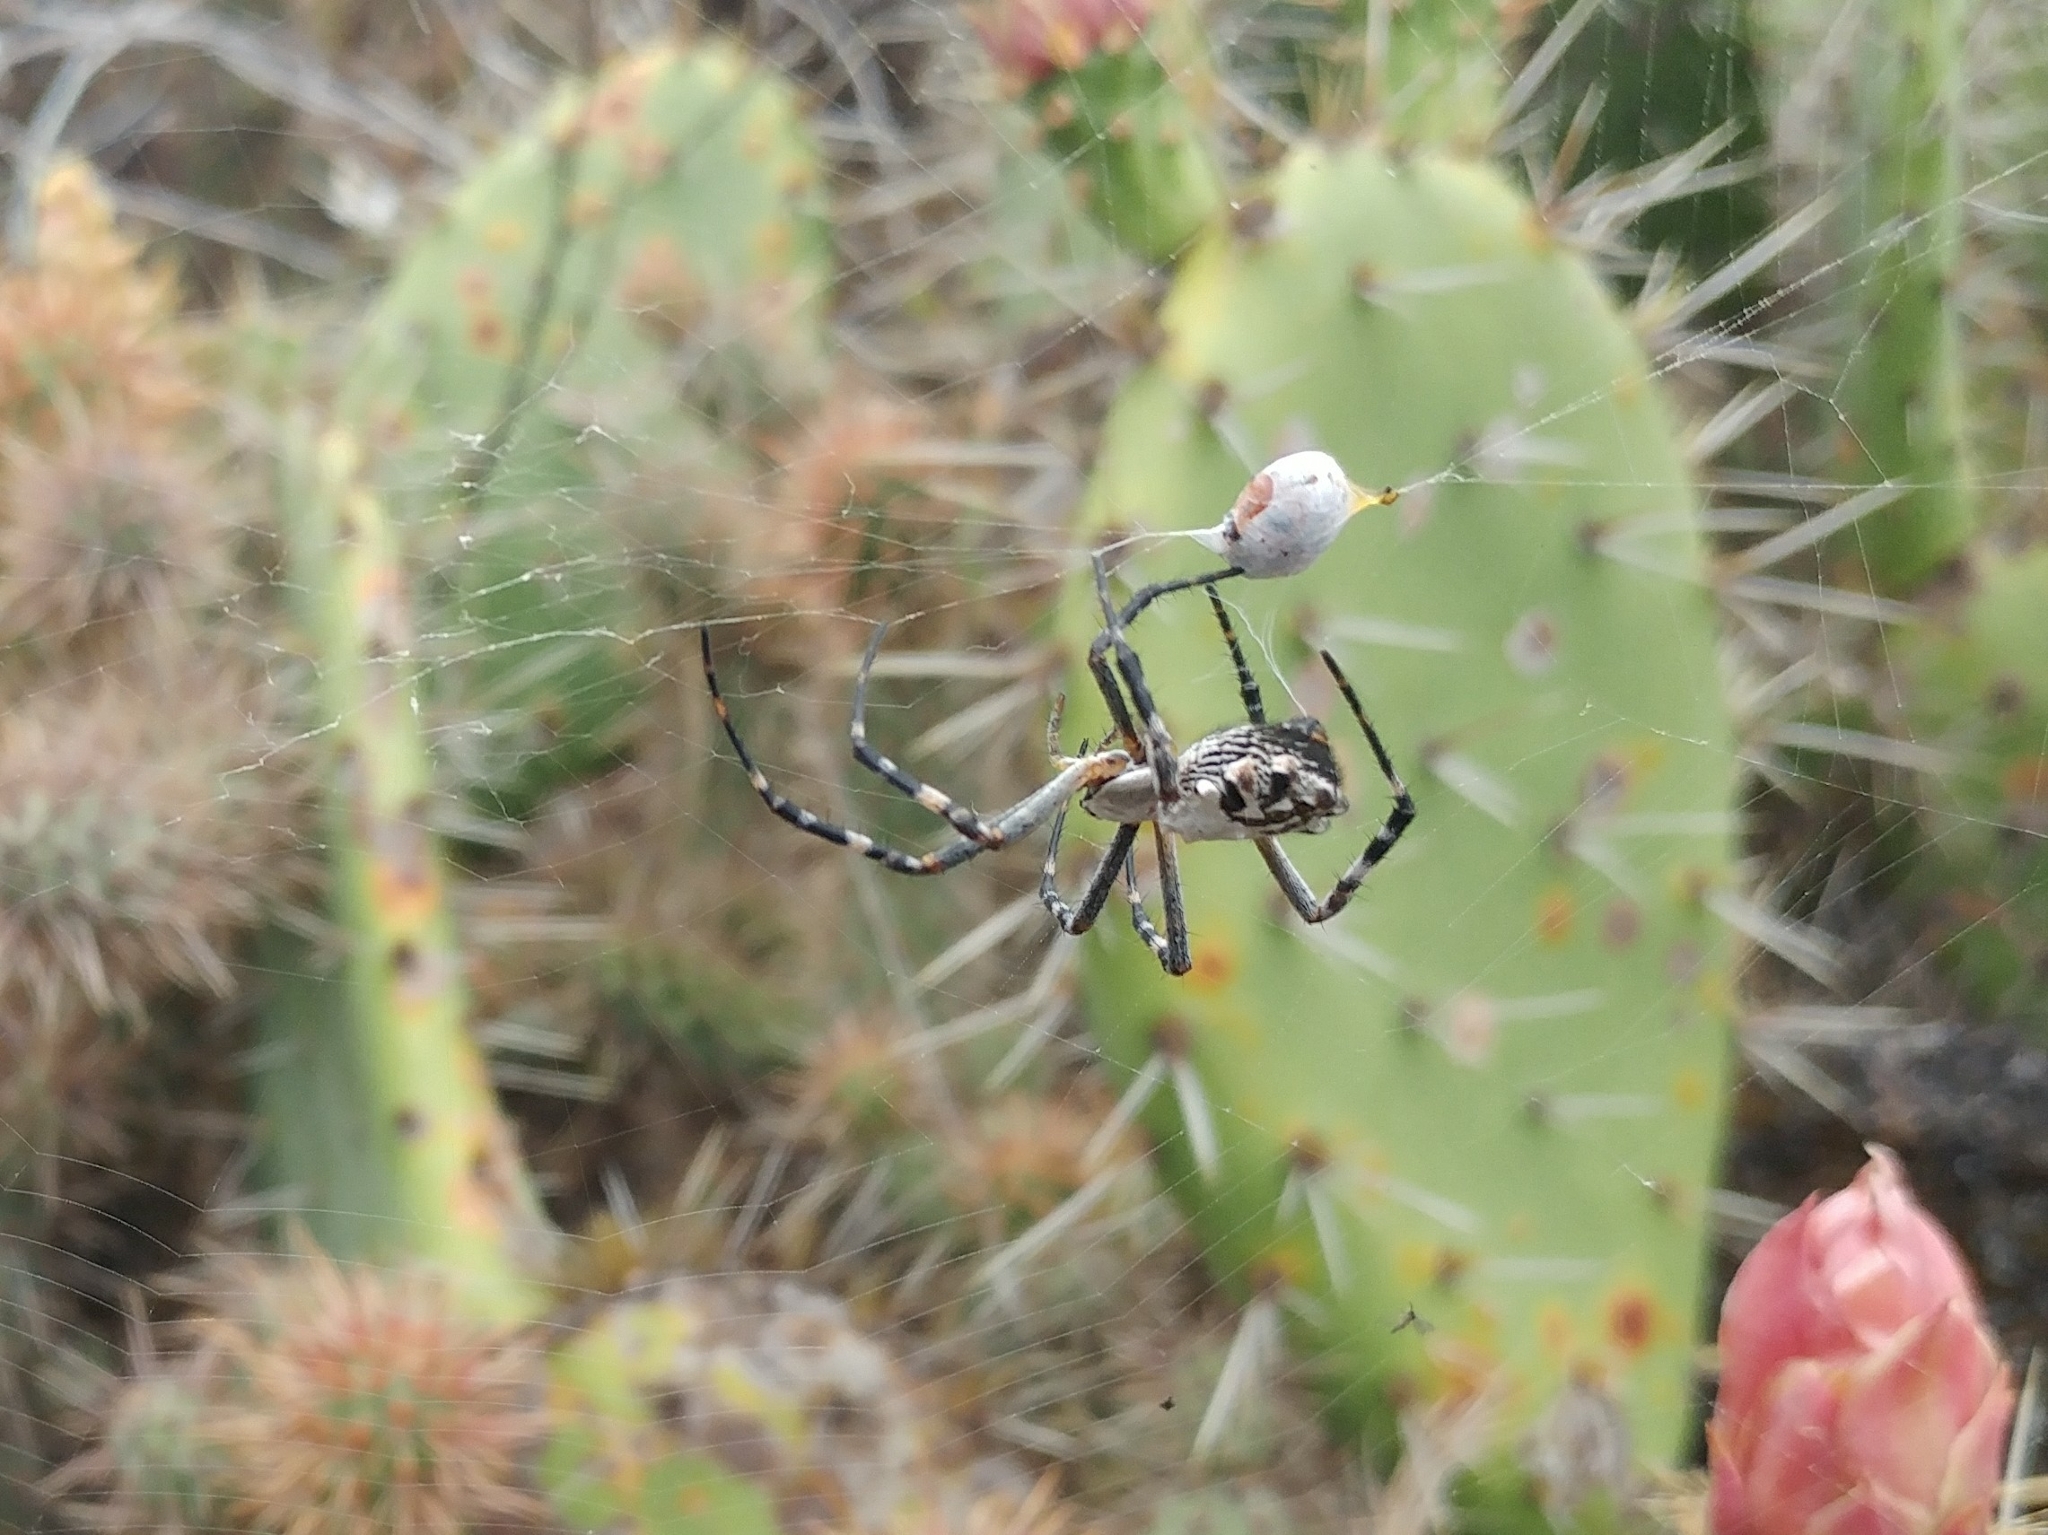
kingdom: Animalia
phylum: Arthropoda
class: Arachnida
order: Araneae
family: Araneidae
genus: Argiope
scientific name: Argiope argentata
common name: Orb weavers
